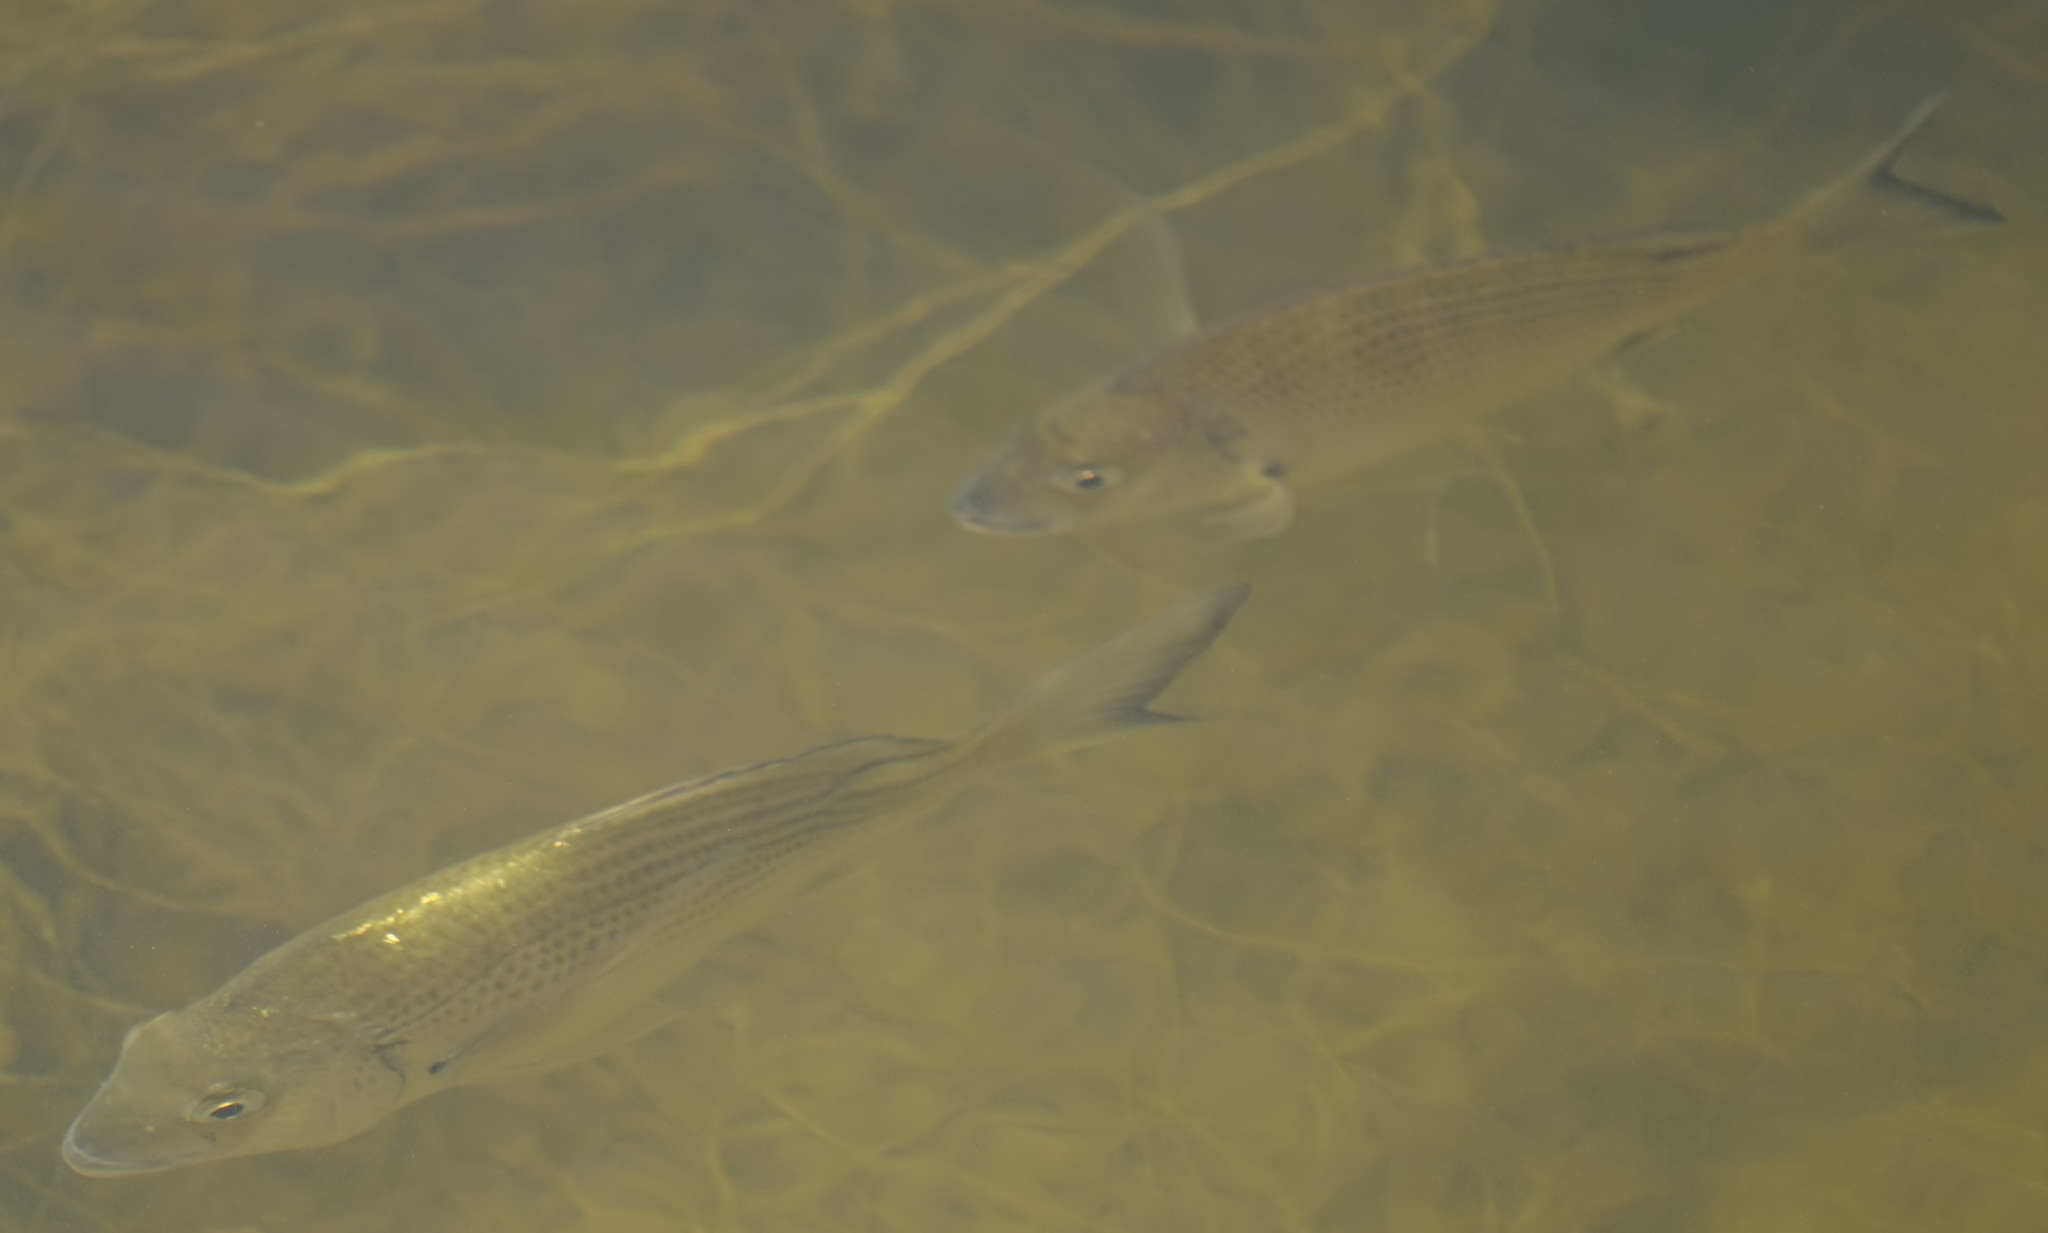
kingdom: Animalia
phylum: Chordata
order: Perciformes
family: Sparidae
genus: Acanthopagrus
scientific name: Acanthopagrus australis
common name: Surf bream
